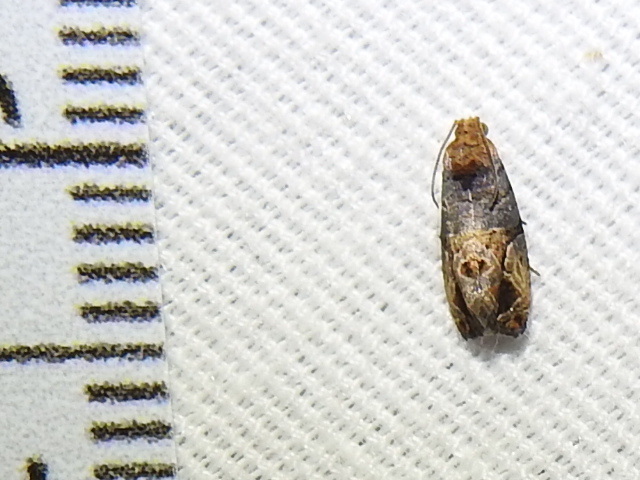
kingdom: Animalia
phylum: Arthropoda
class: Insecta
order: Lepidoptera
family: Tortricidae
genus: Paralobesia
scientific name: Paralobesia viteana
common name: Grape berry moth
